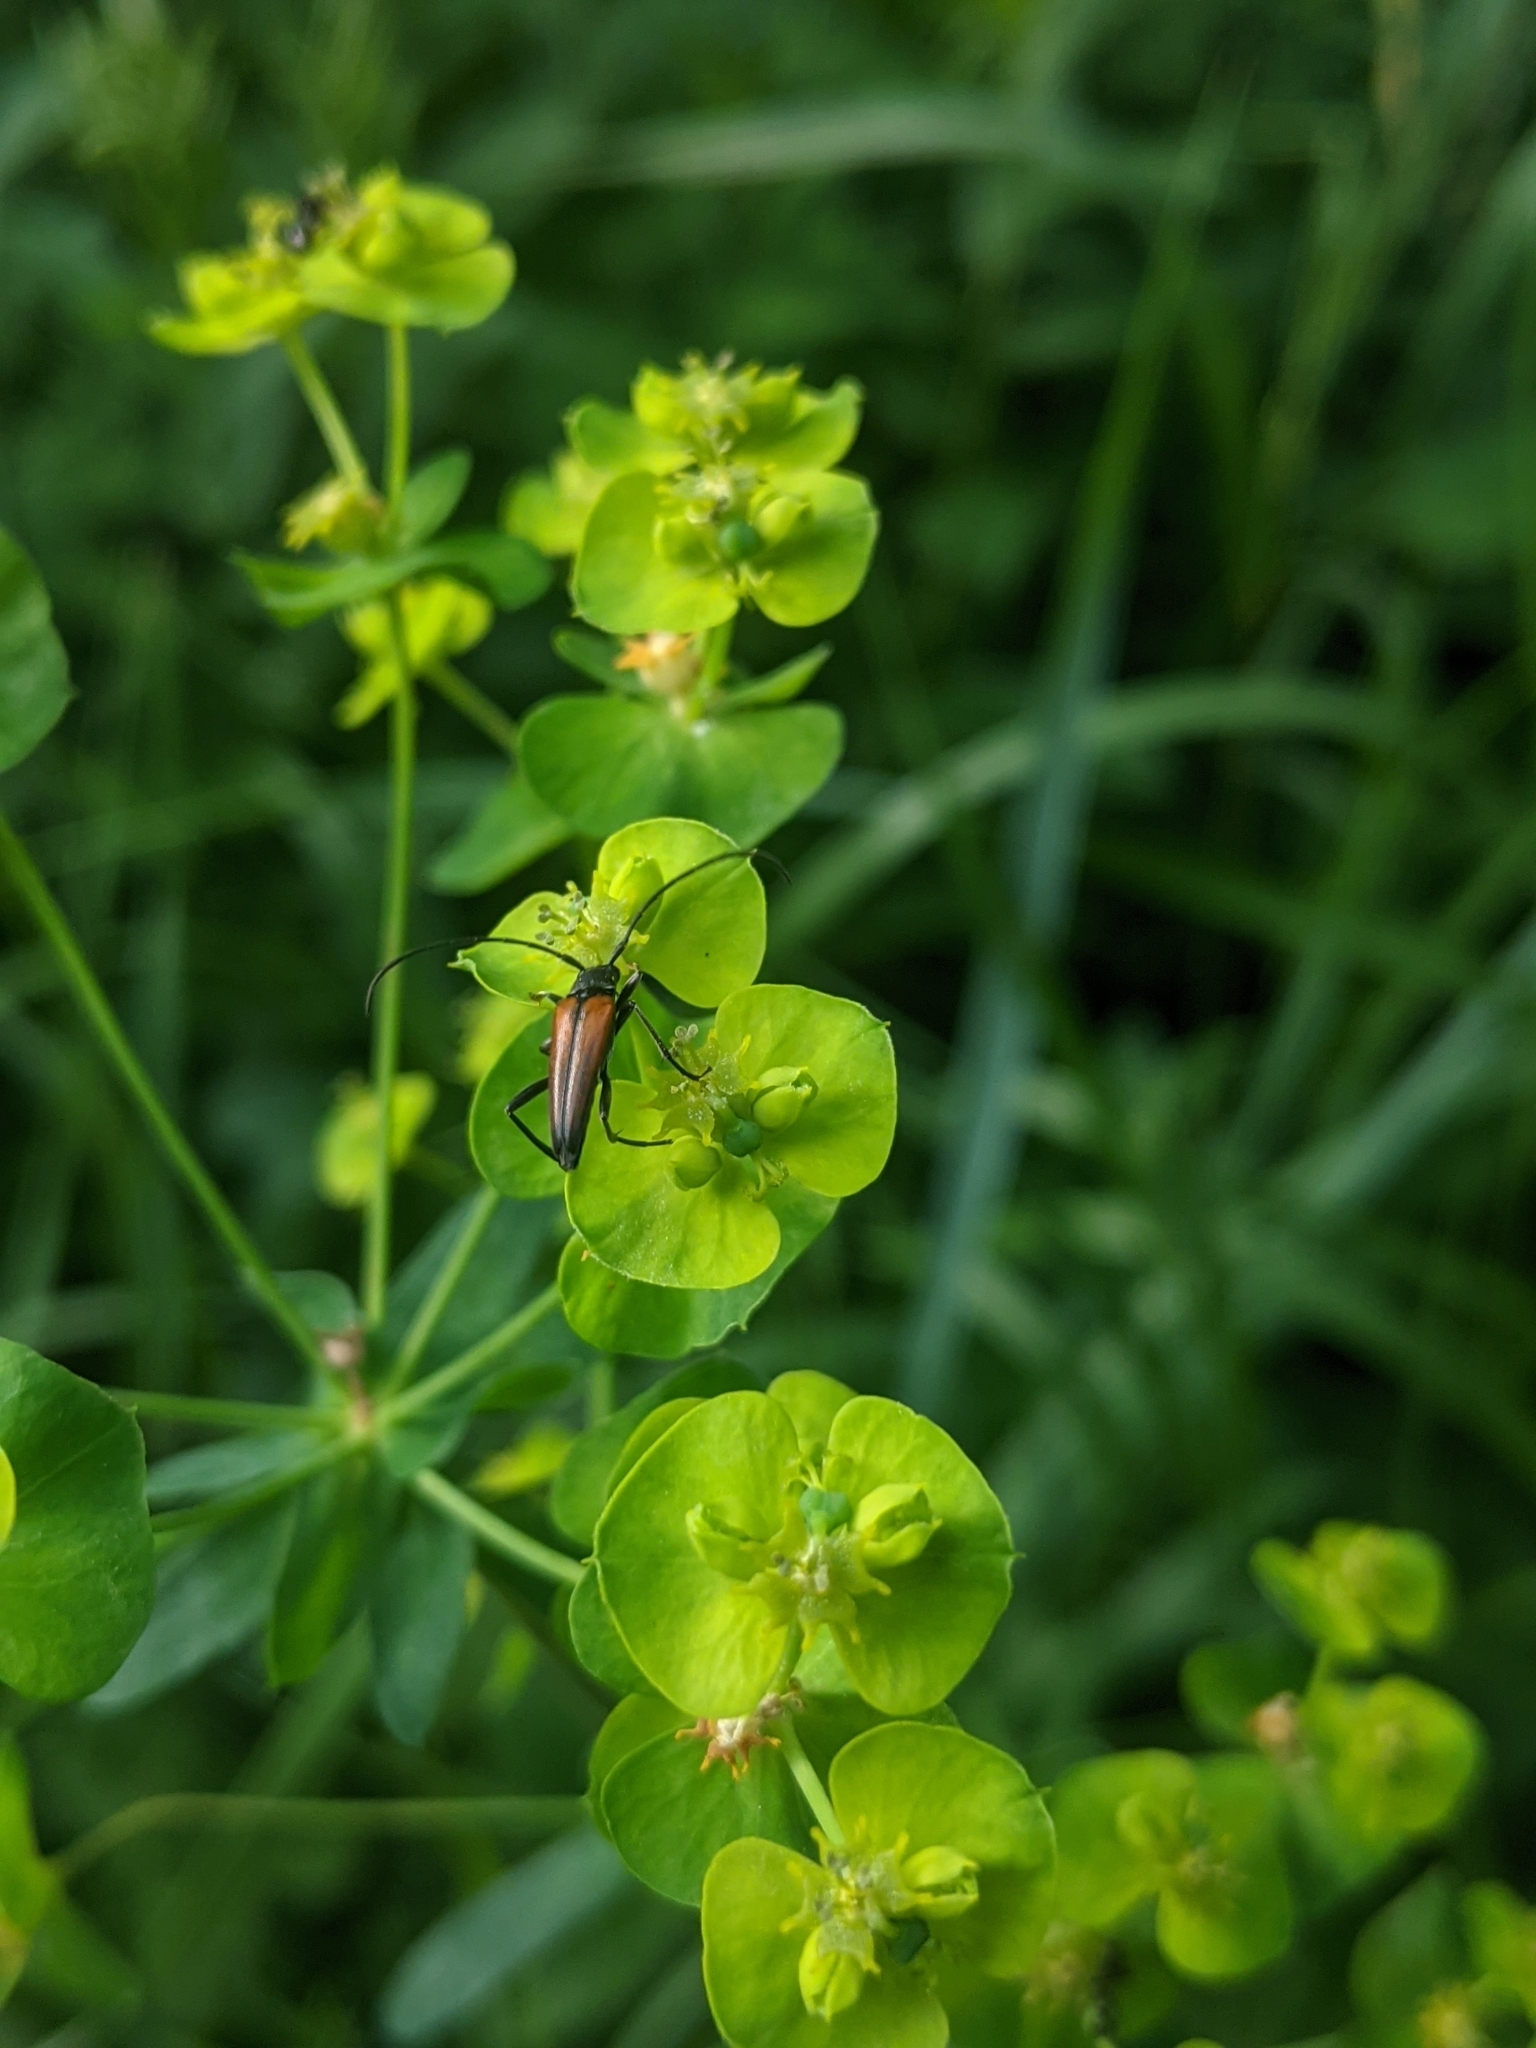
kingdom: Animalia
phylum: Arthropoda
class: Insecta
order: Coleoptera
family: Cerambycidae
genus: Stenurella
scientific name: Stenurella melanura
